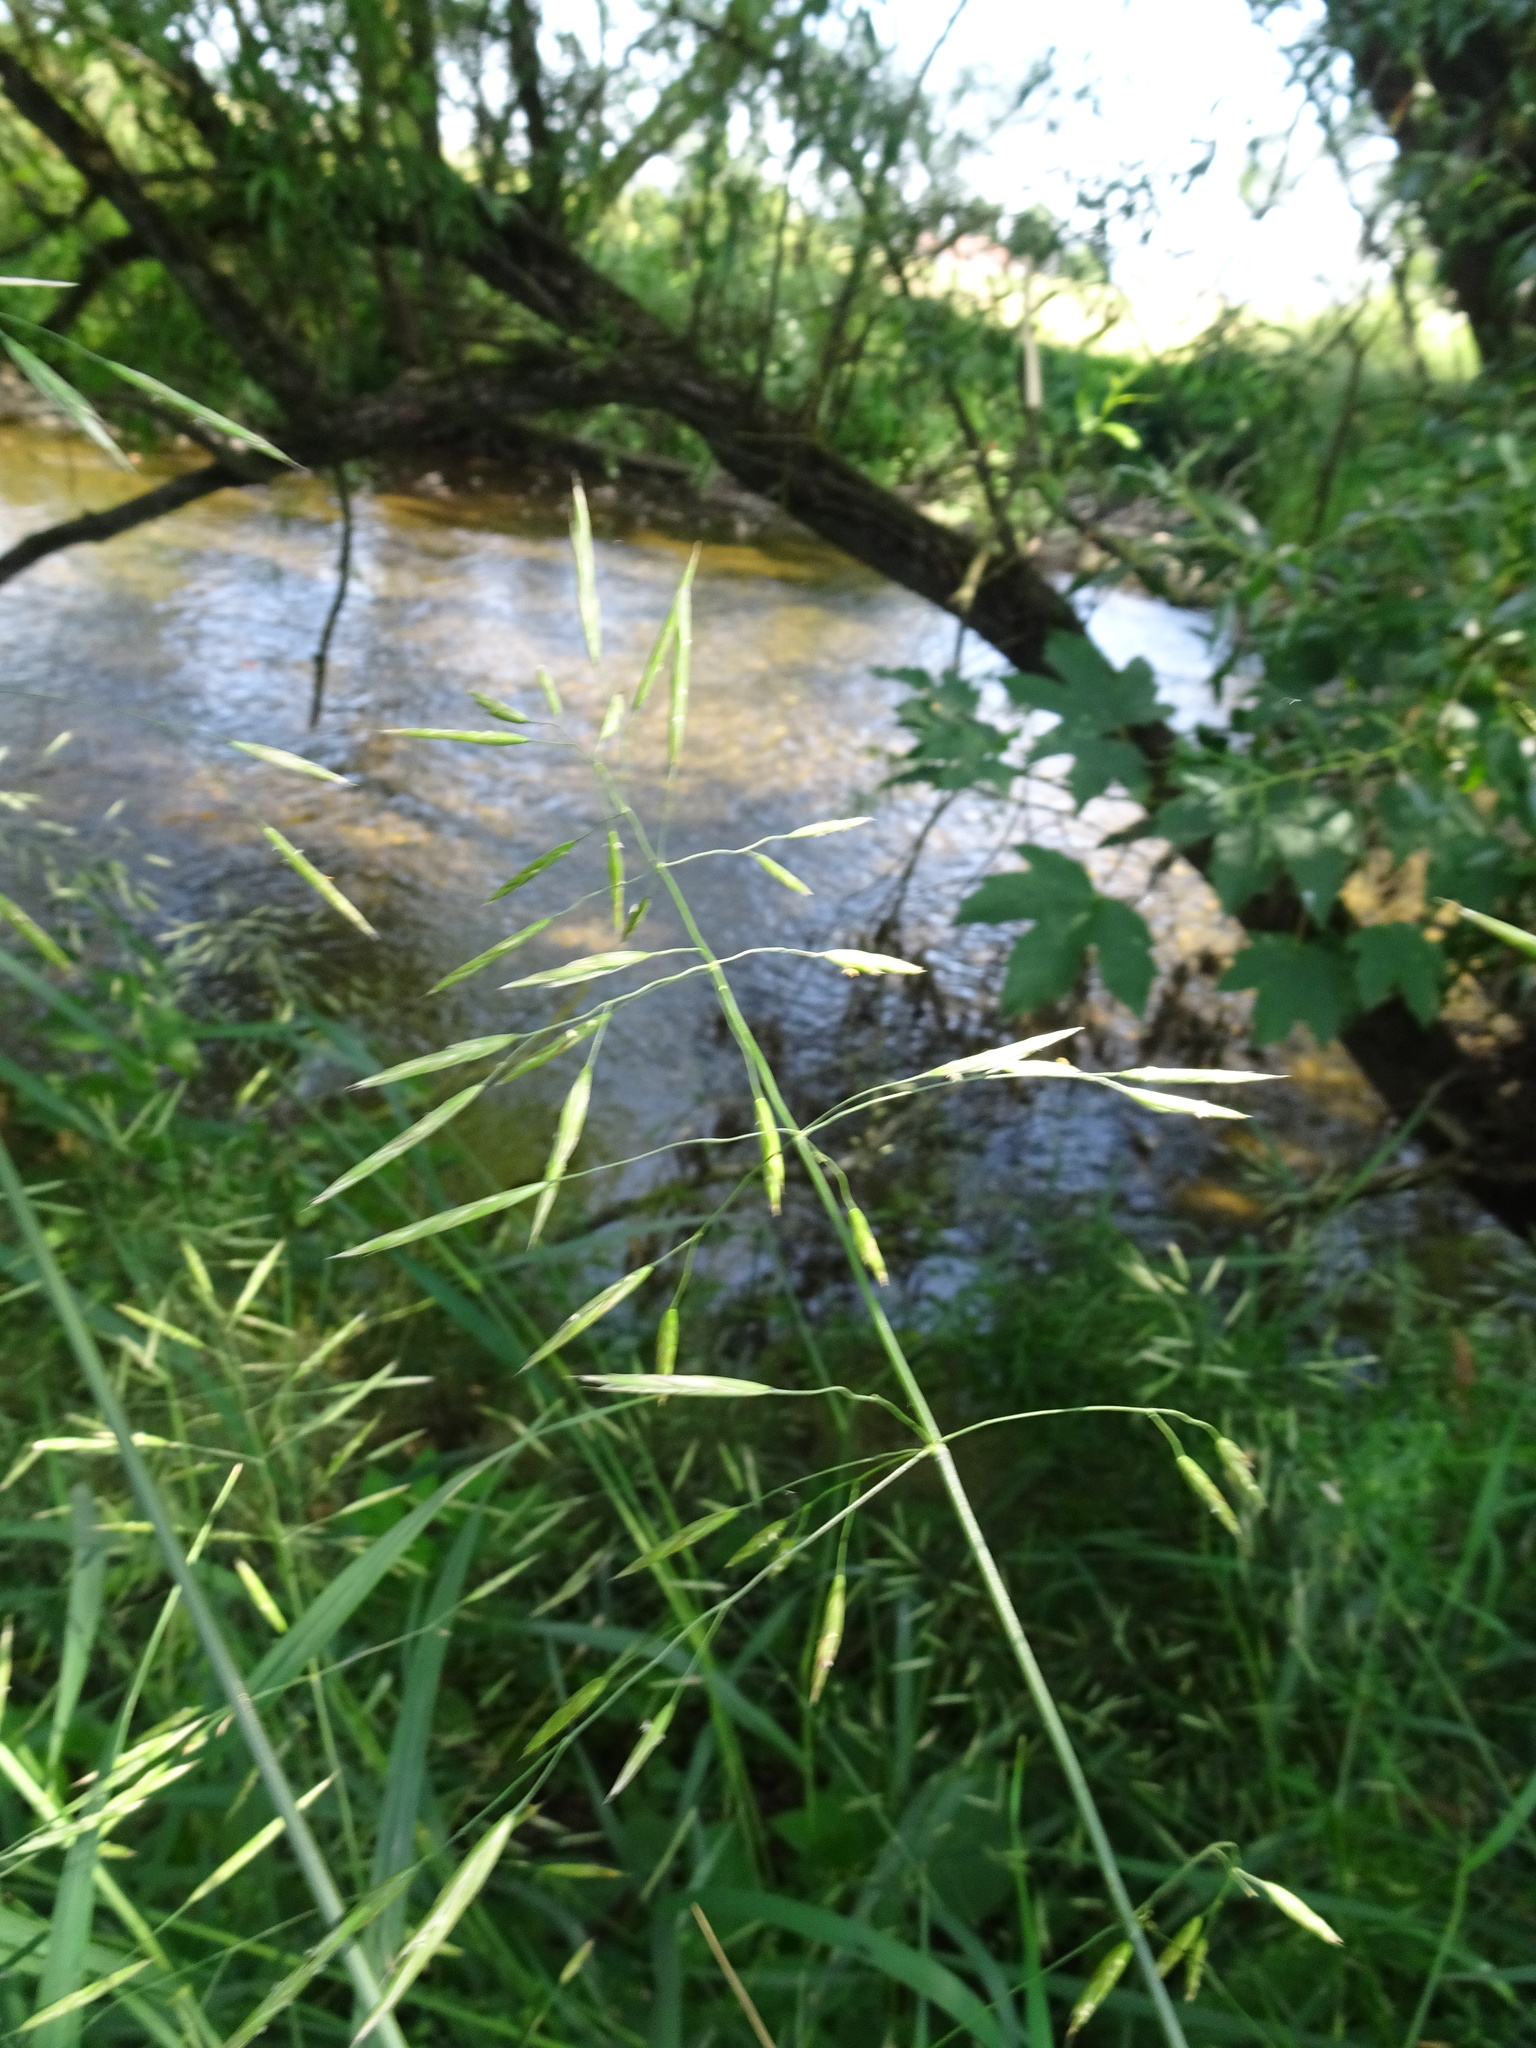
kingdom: Plantae
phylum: Tracheophyta
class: Liliopsida
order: Poales
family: Poaceae
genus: Bromus
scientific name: Bromus inermis
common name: Smooth brome
